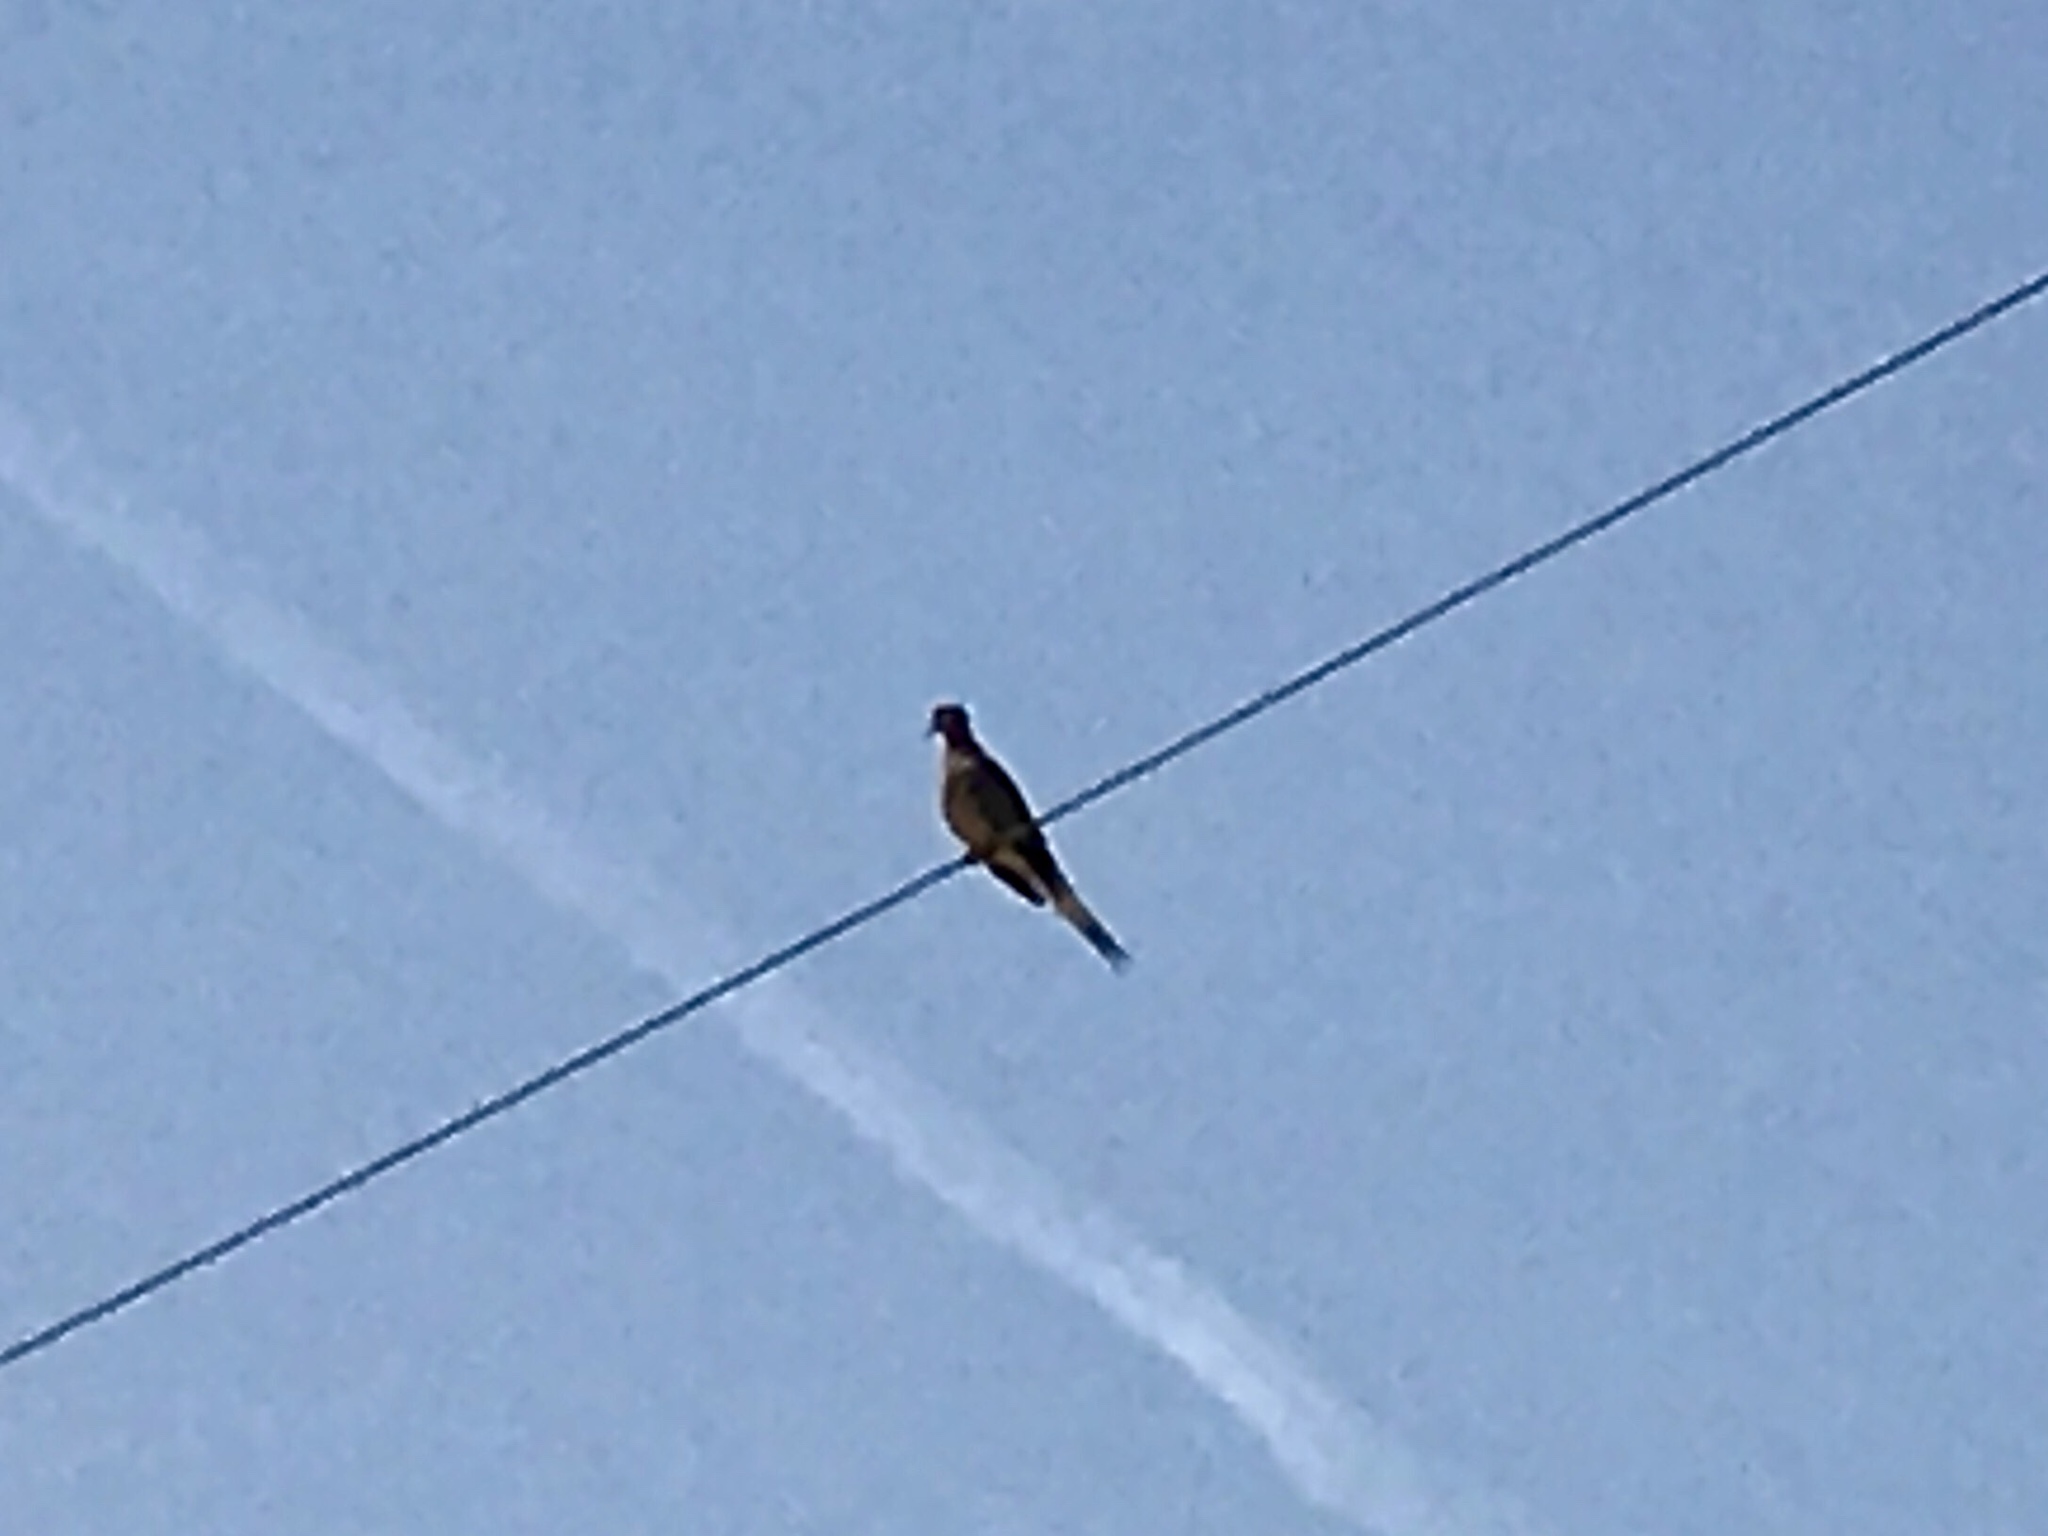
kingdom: Animalia
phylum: Chordata
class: Aves
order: Columbiformes
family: Columbidae
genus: Zenaida
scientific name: Zenaida macroura
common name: Mourning dove
